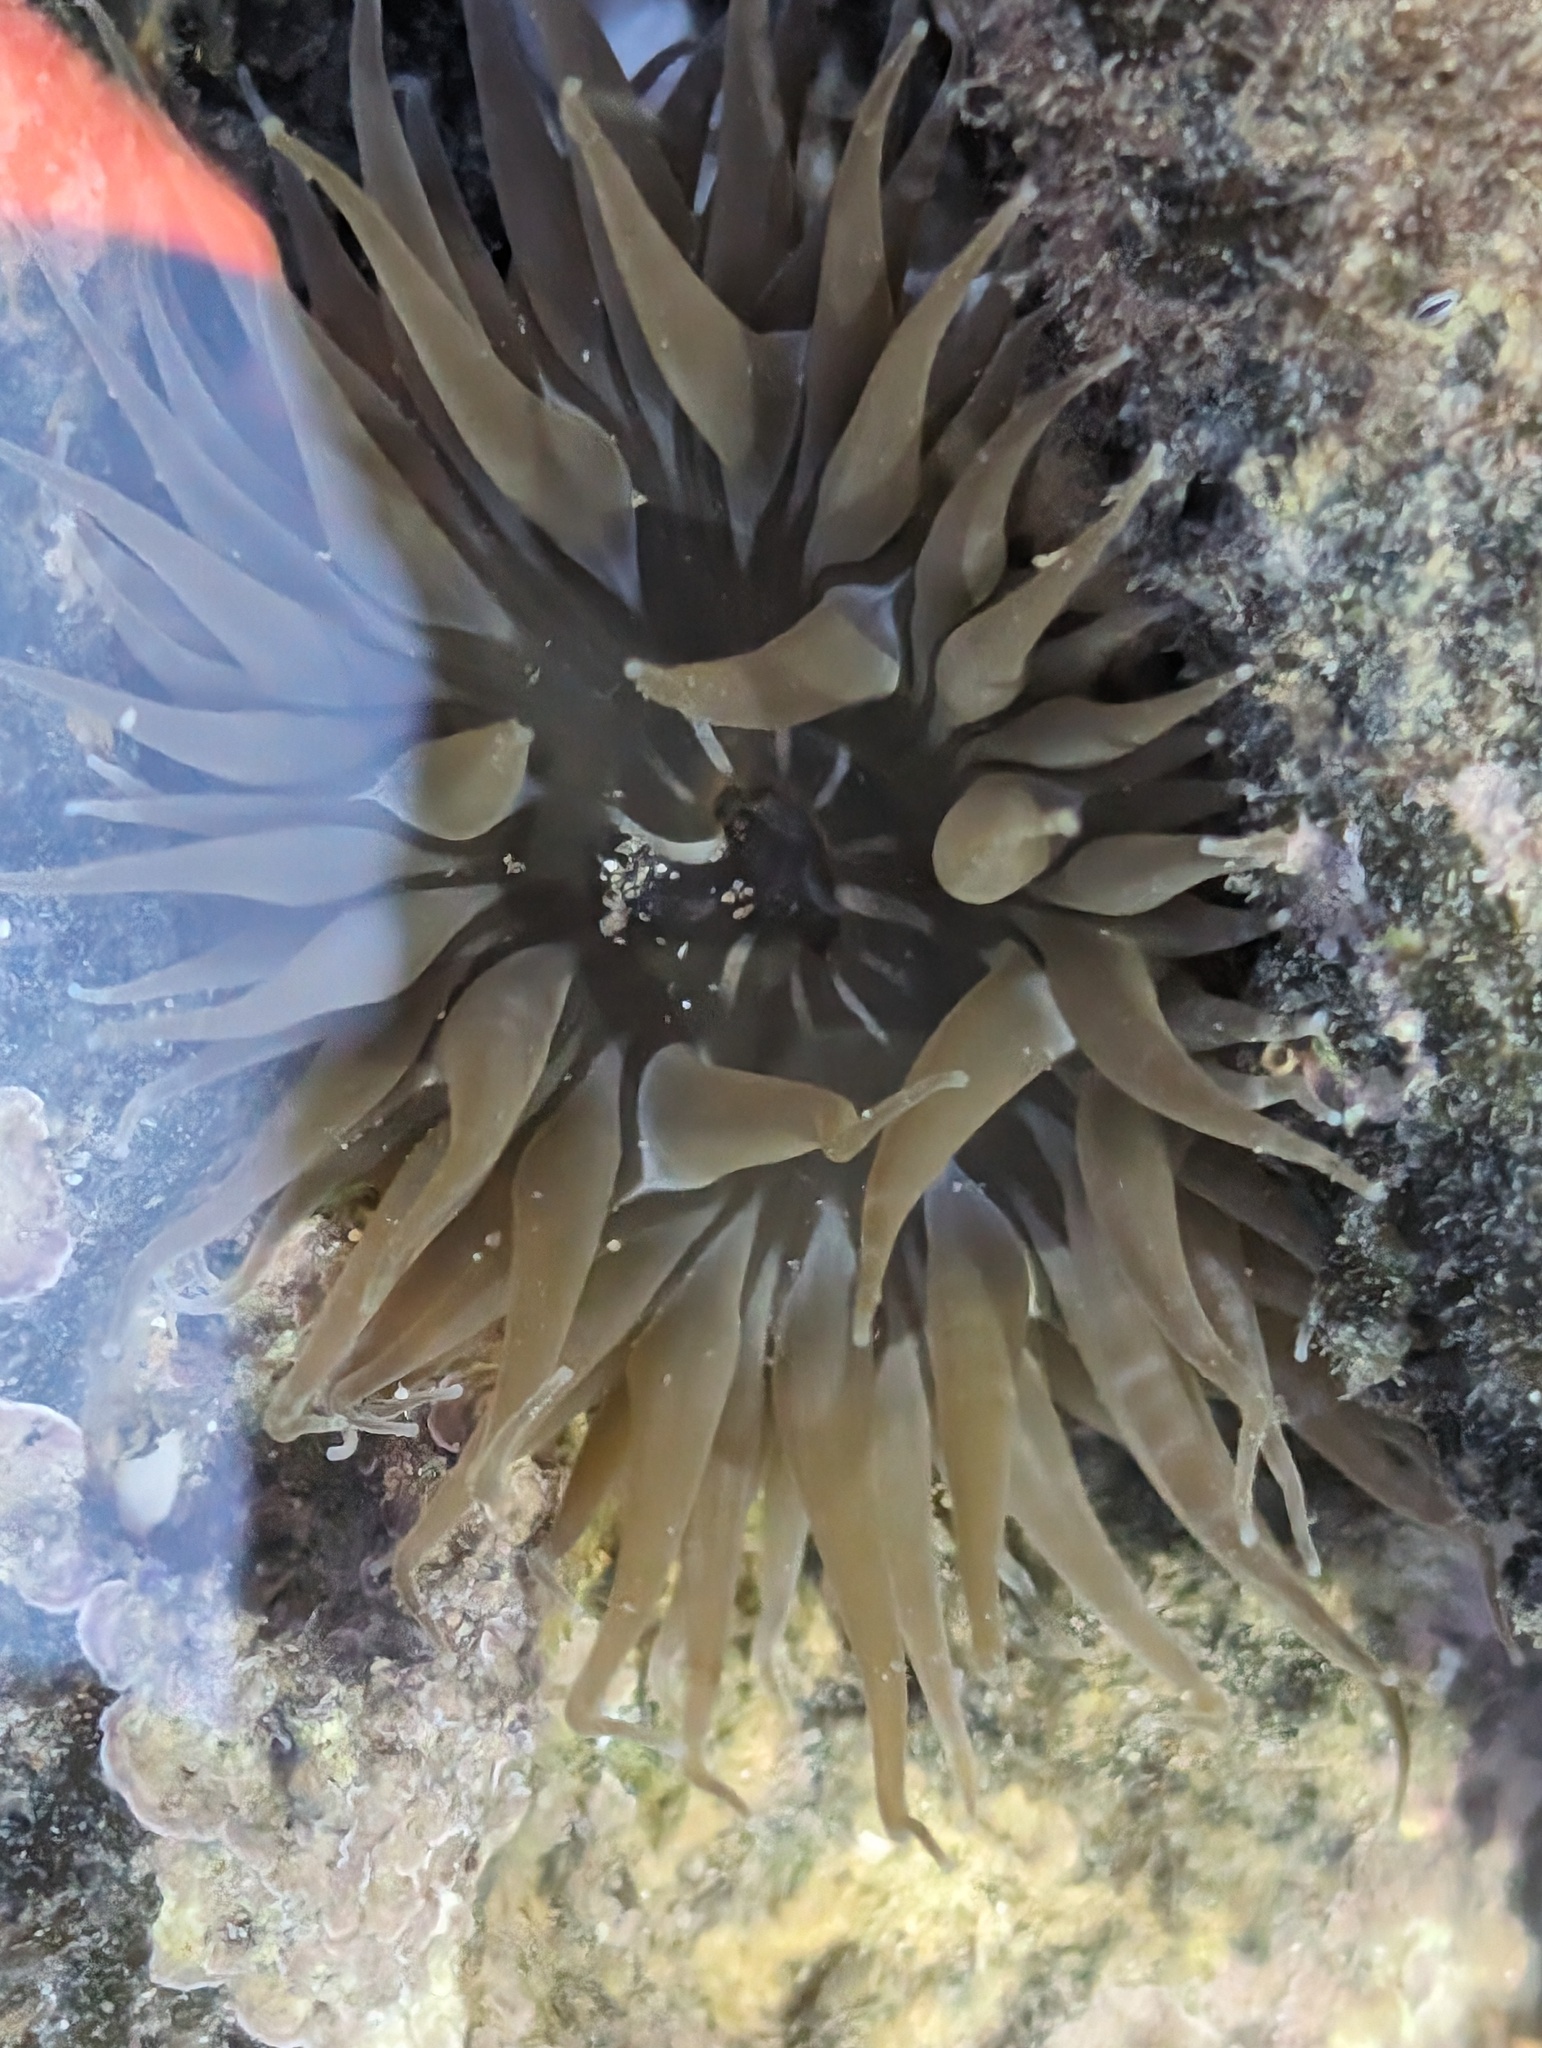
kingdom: Animalia
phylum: Cnidaria
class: Anthozoa
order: Actiniaria
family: Actiniidae
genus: Isoaulactinia
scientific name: Isoaulactinia hespervolita
